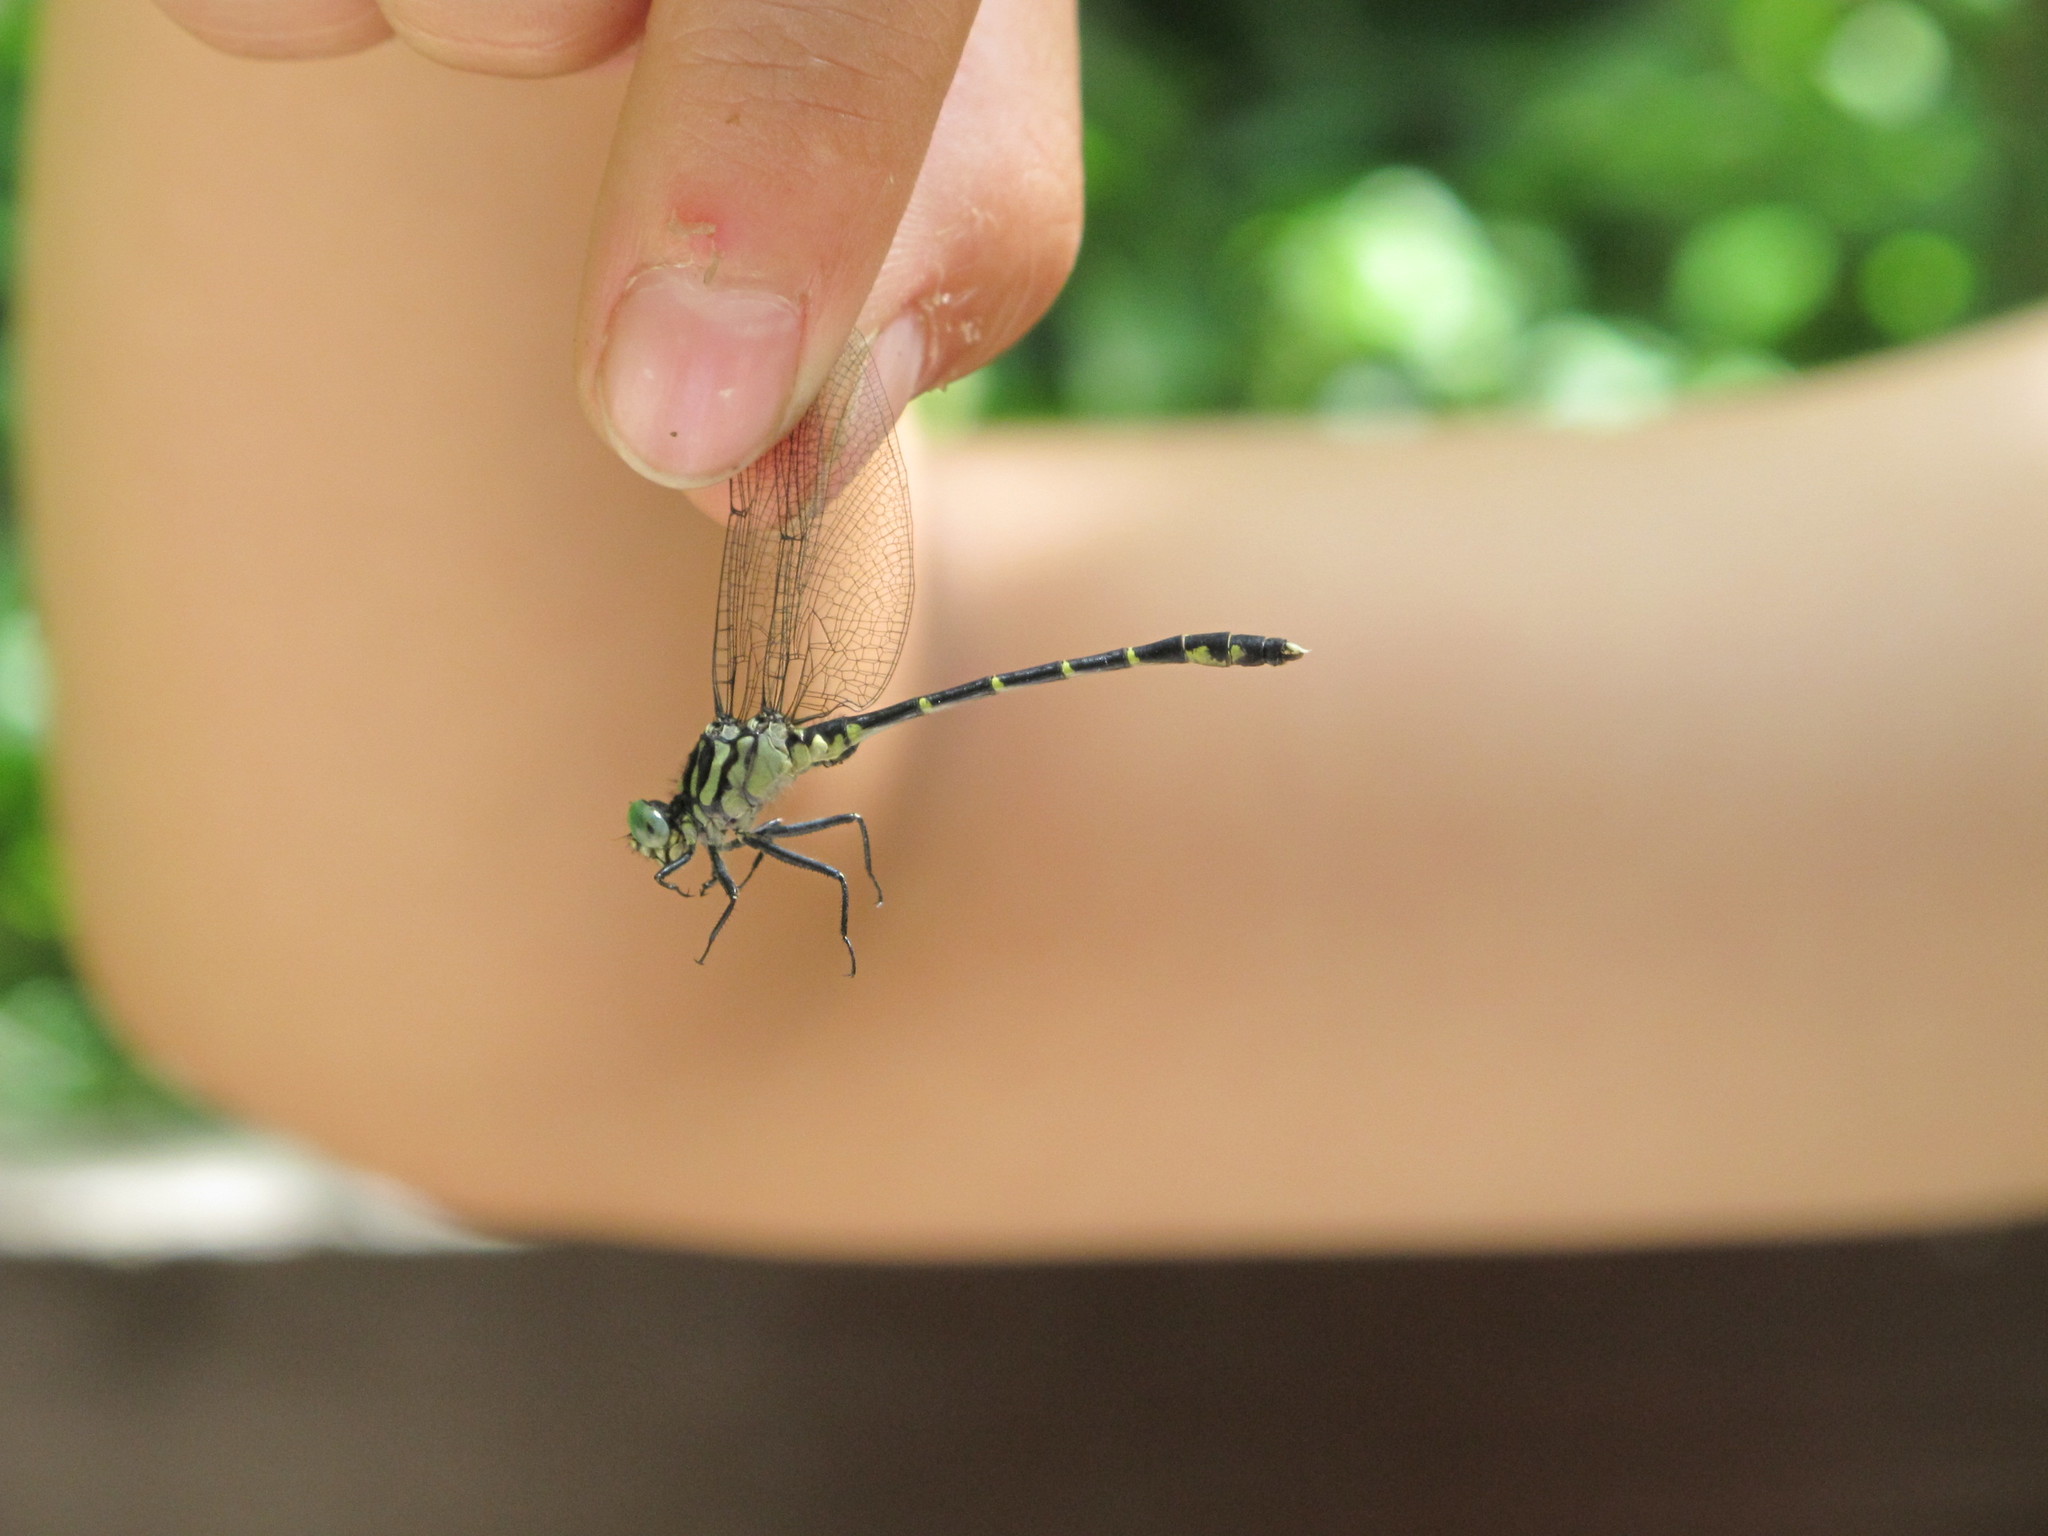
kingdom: Animalia
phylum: Arthropoda
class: Insecta
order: Odonata
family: Gomphidae
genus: Stylogomphus
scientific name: Stylogomphus albistylus
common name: Eastern least clubtail
